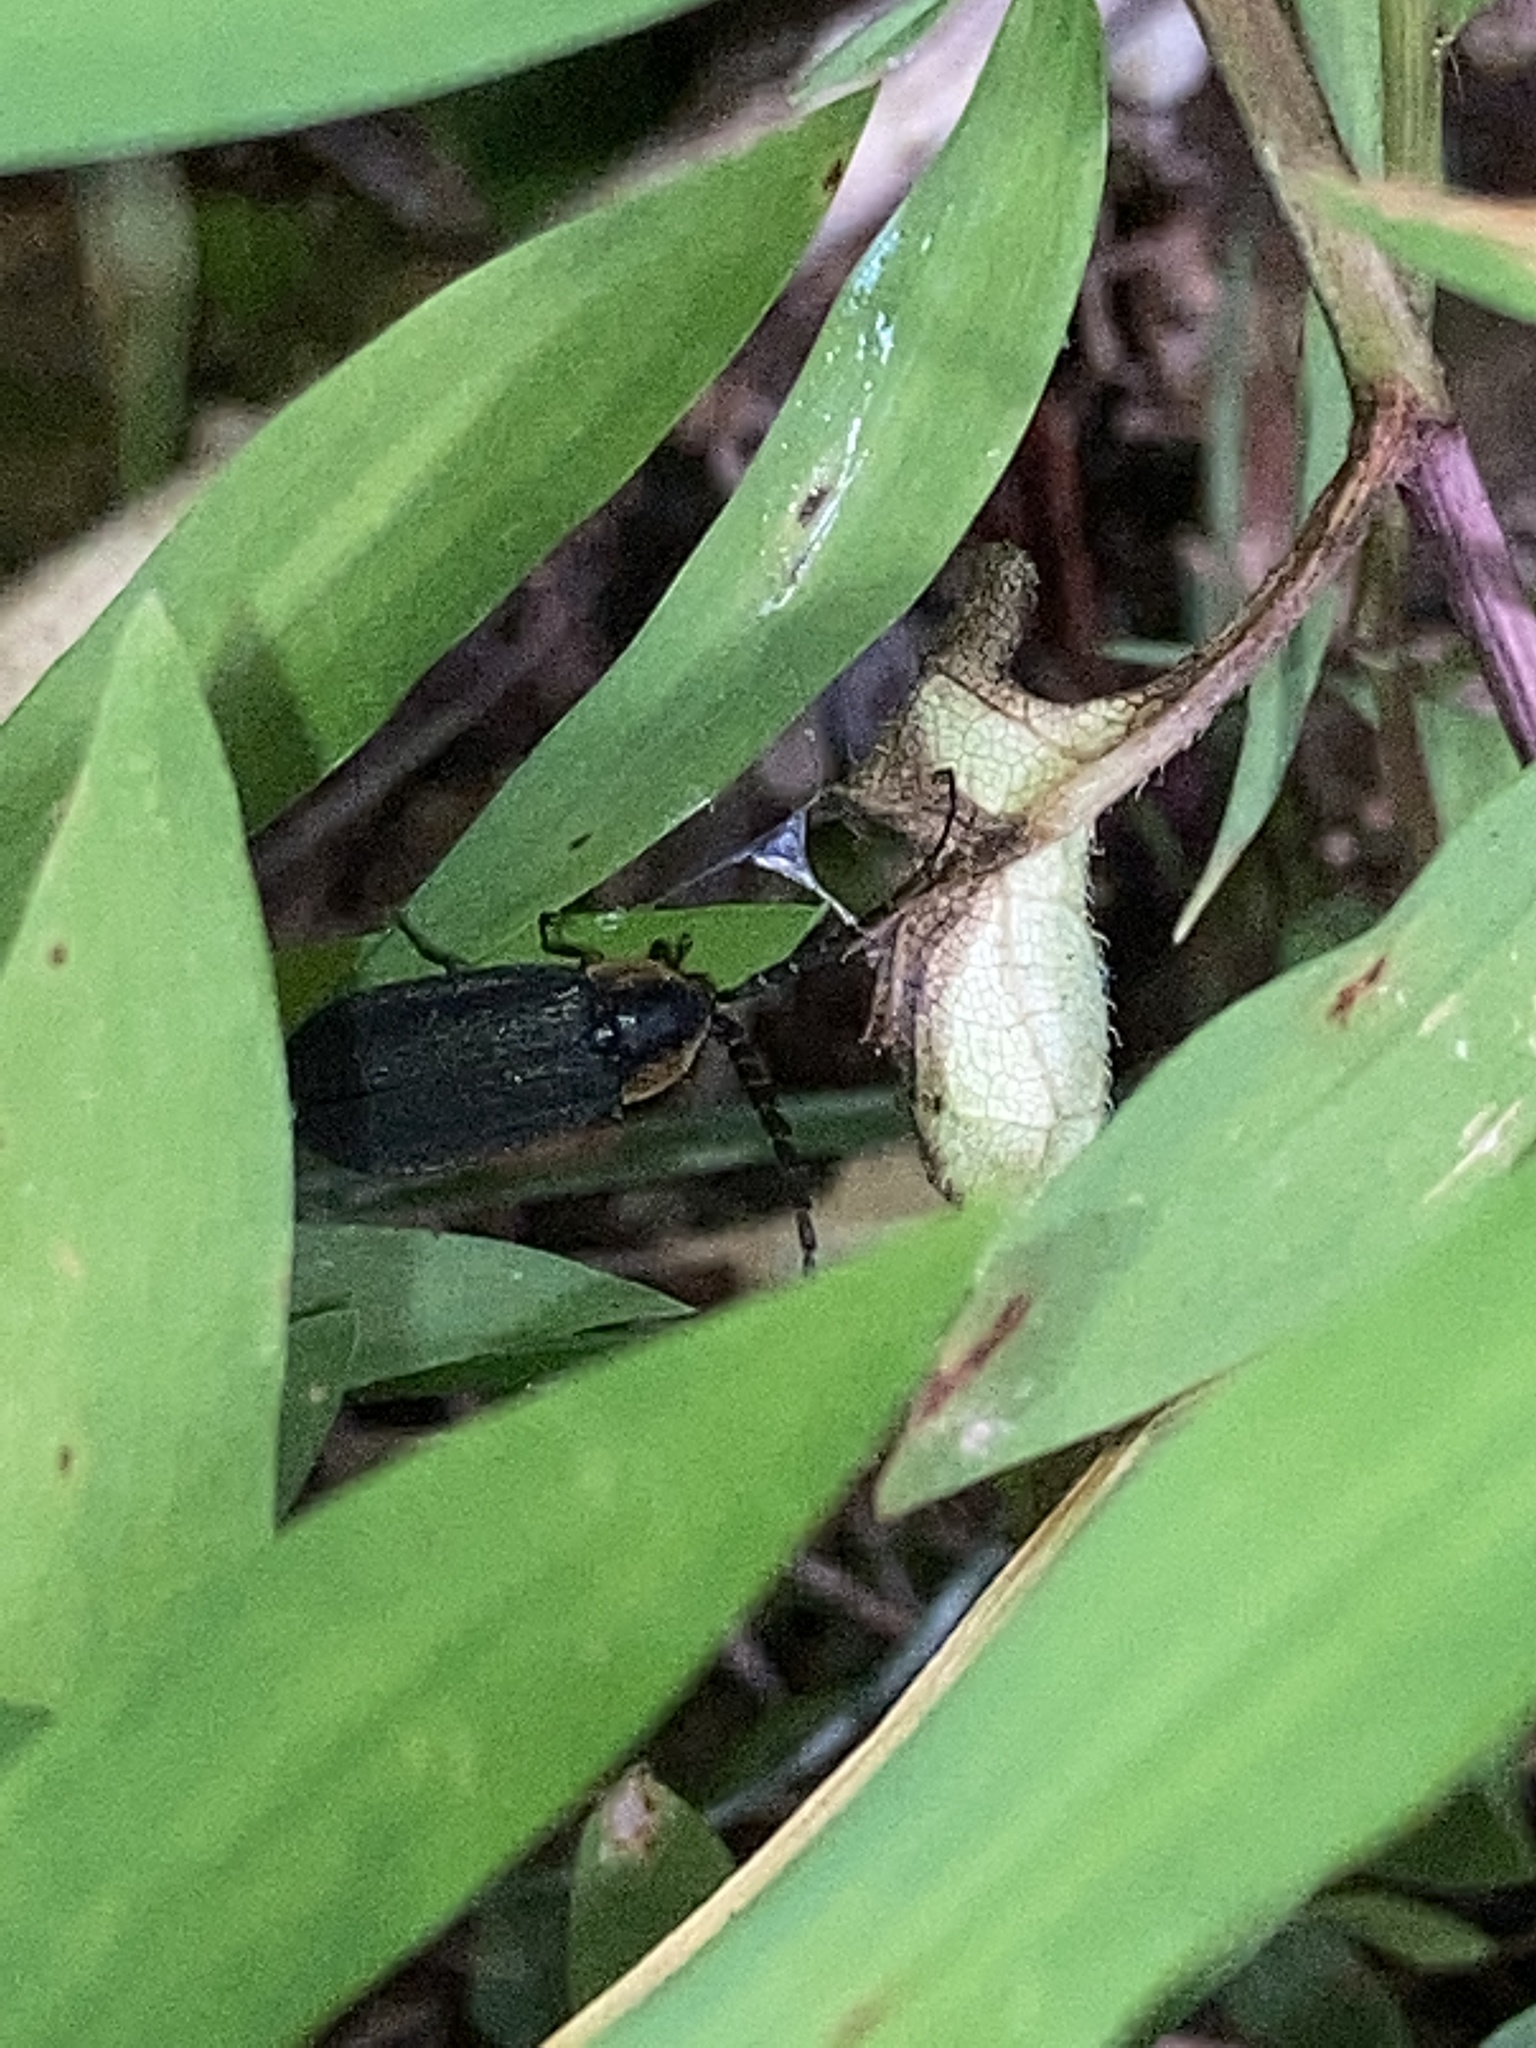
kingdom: Animalia
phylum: Arthropoda
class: Insecta
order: Coleoptera
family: Lampyridae
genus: Lucidota
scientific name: Lucidota atra
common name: Black firefly
